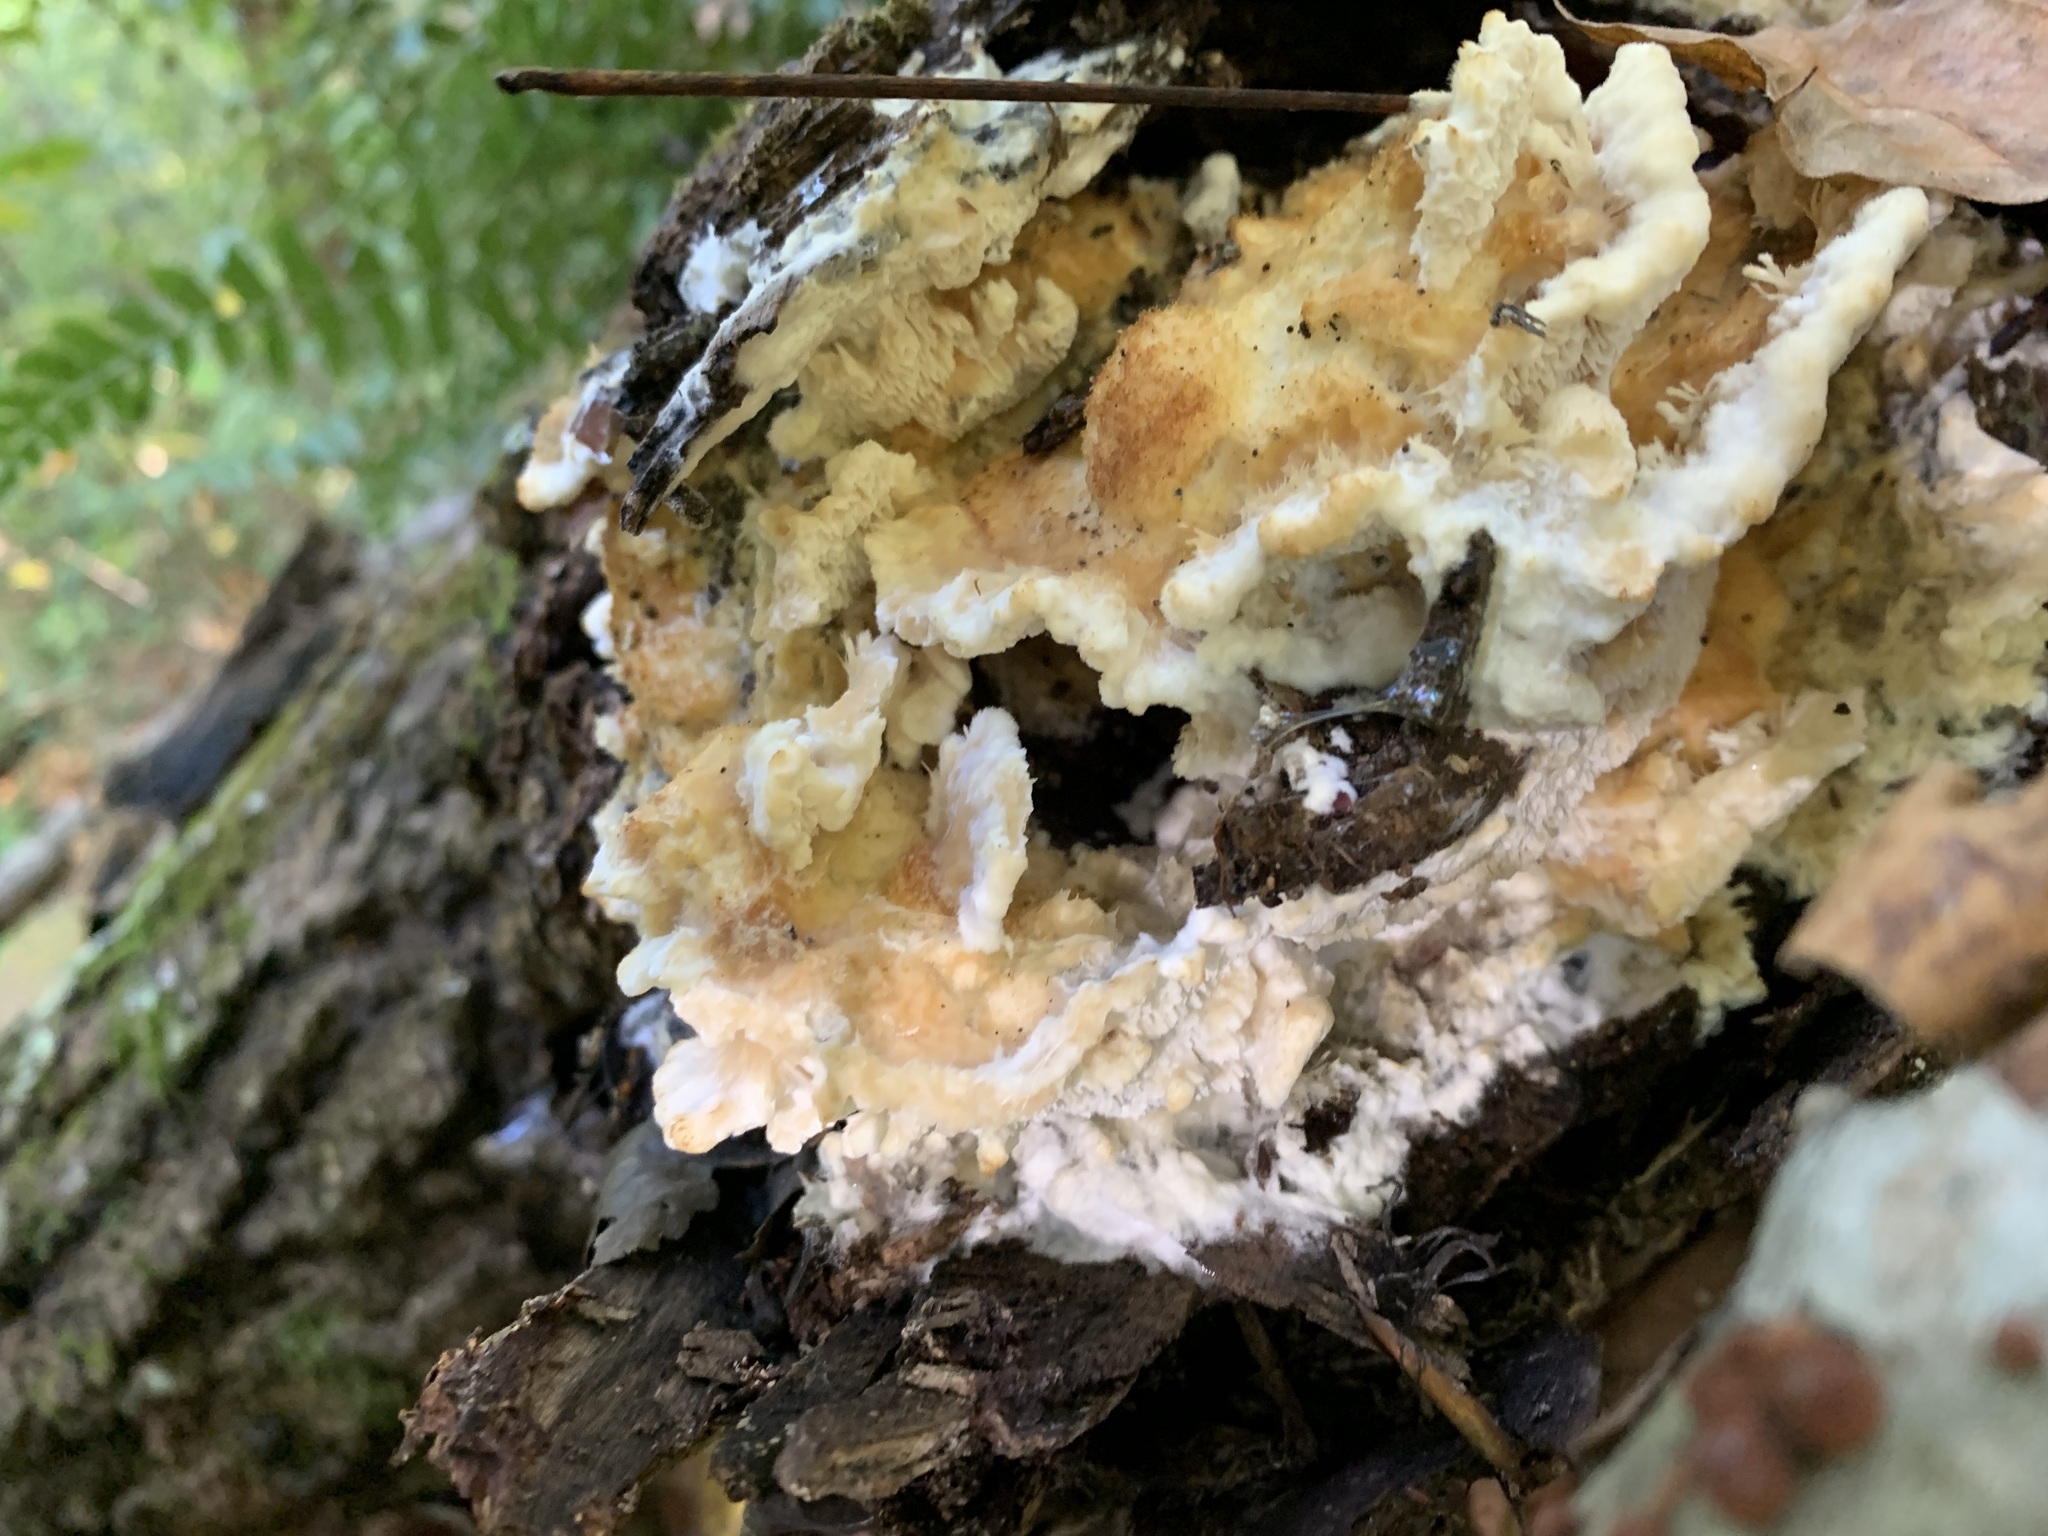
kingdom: Fungi
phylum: Basidiomycota
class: Agaricomycetes
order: Polyporales
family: Irpicaceae
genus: Trametopsis
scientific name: Trametopsis cervina
